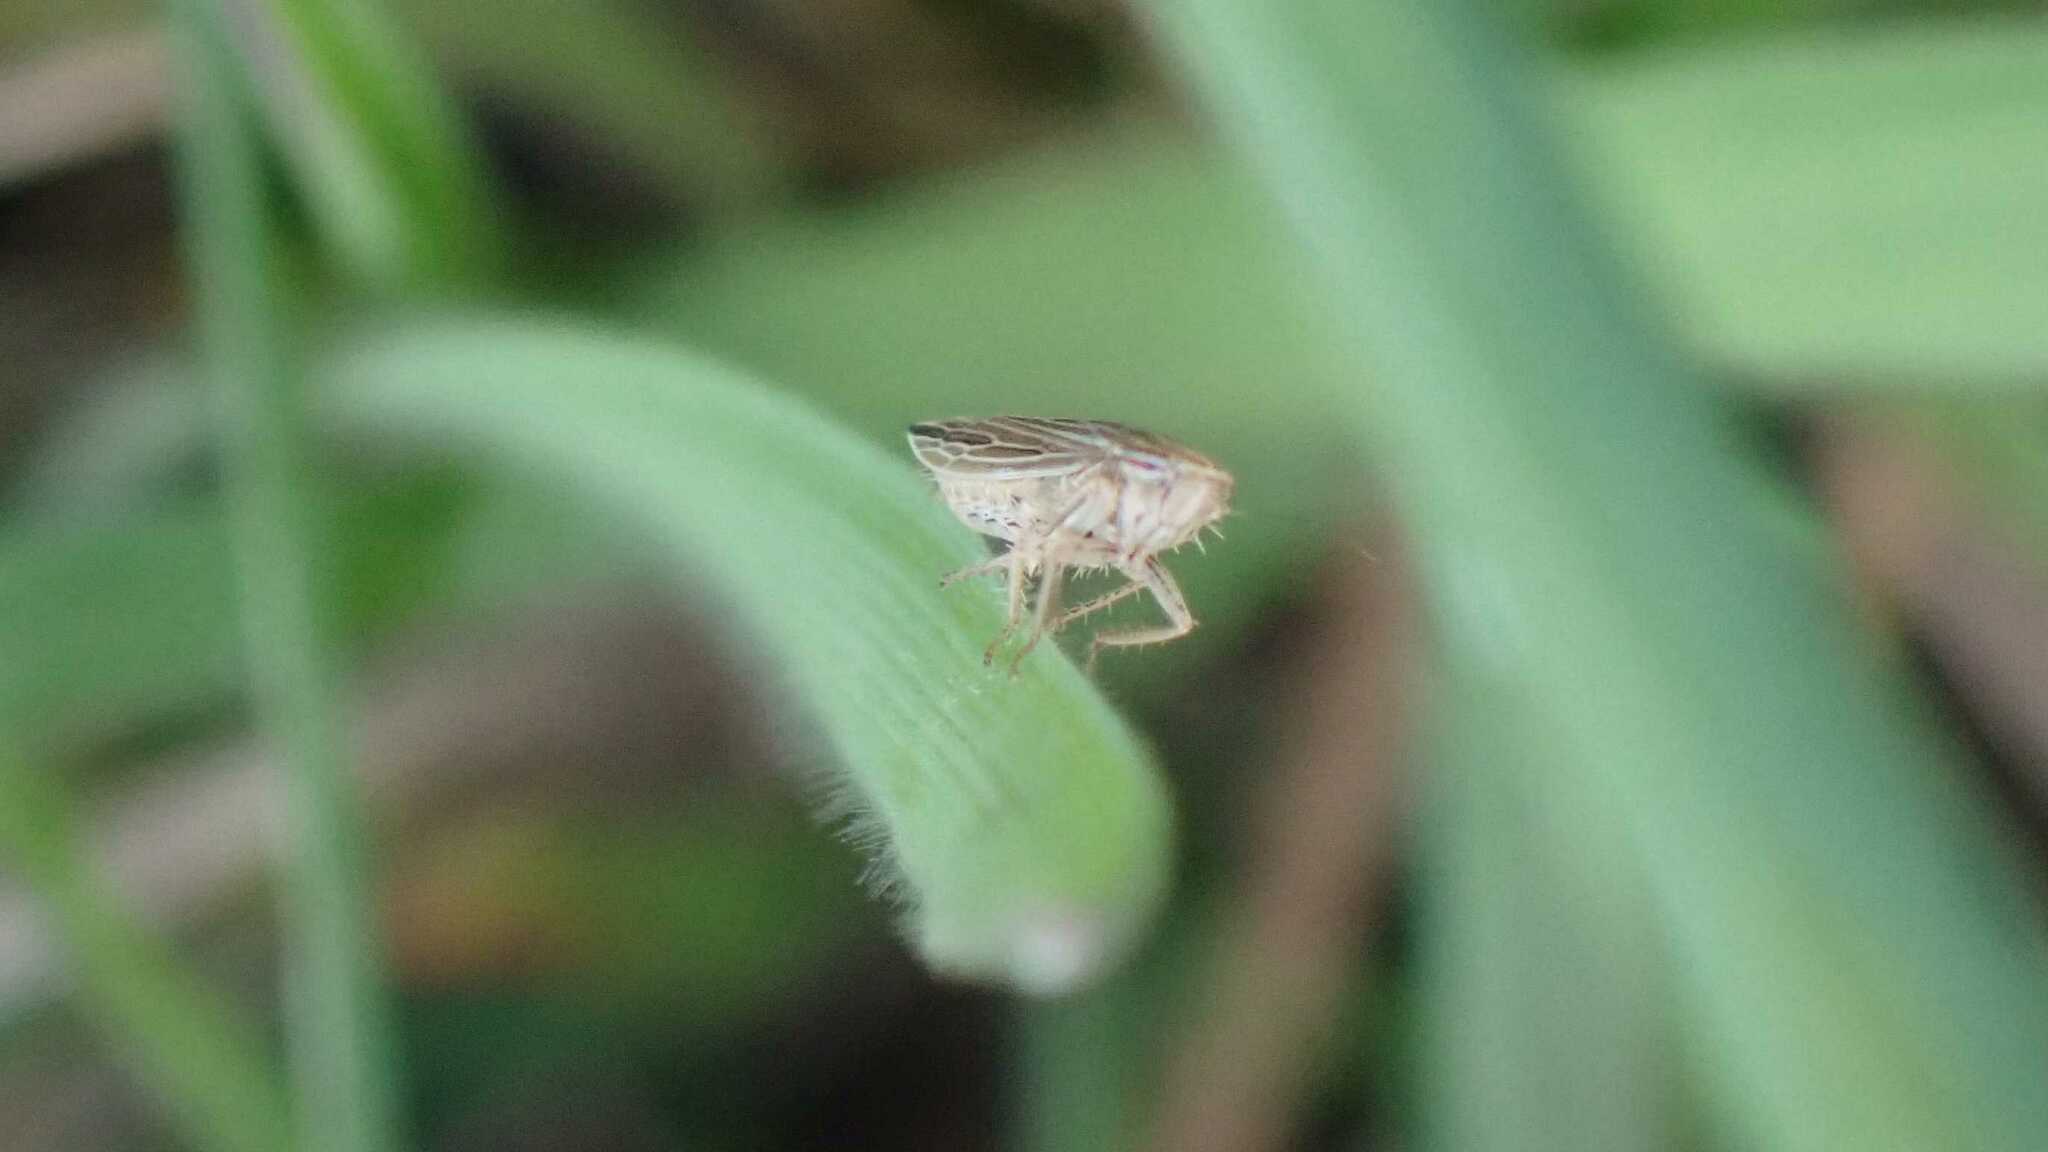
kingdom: Animalia
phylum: Arthropoda
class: Insecta
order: Hemiptera
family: Cicadellidae
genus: Mocydia
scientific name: Mocydia crocea
